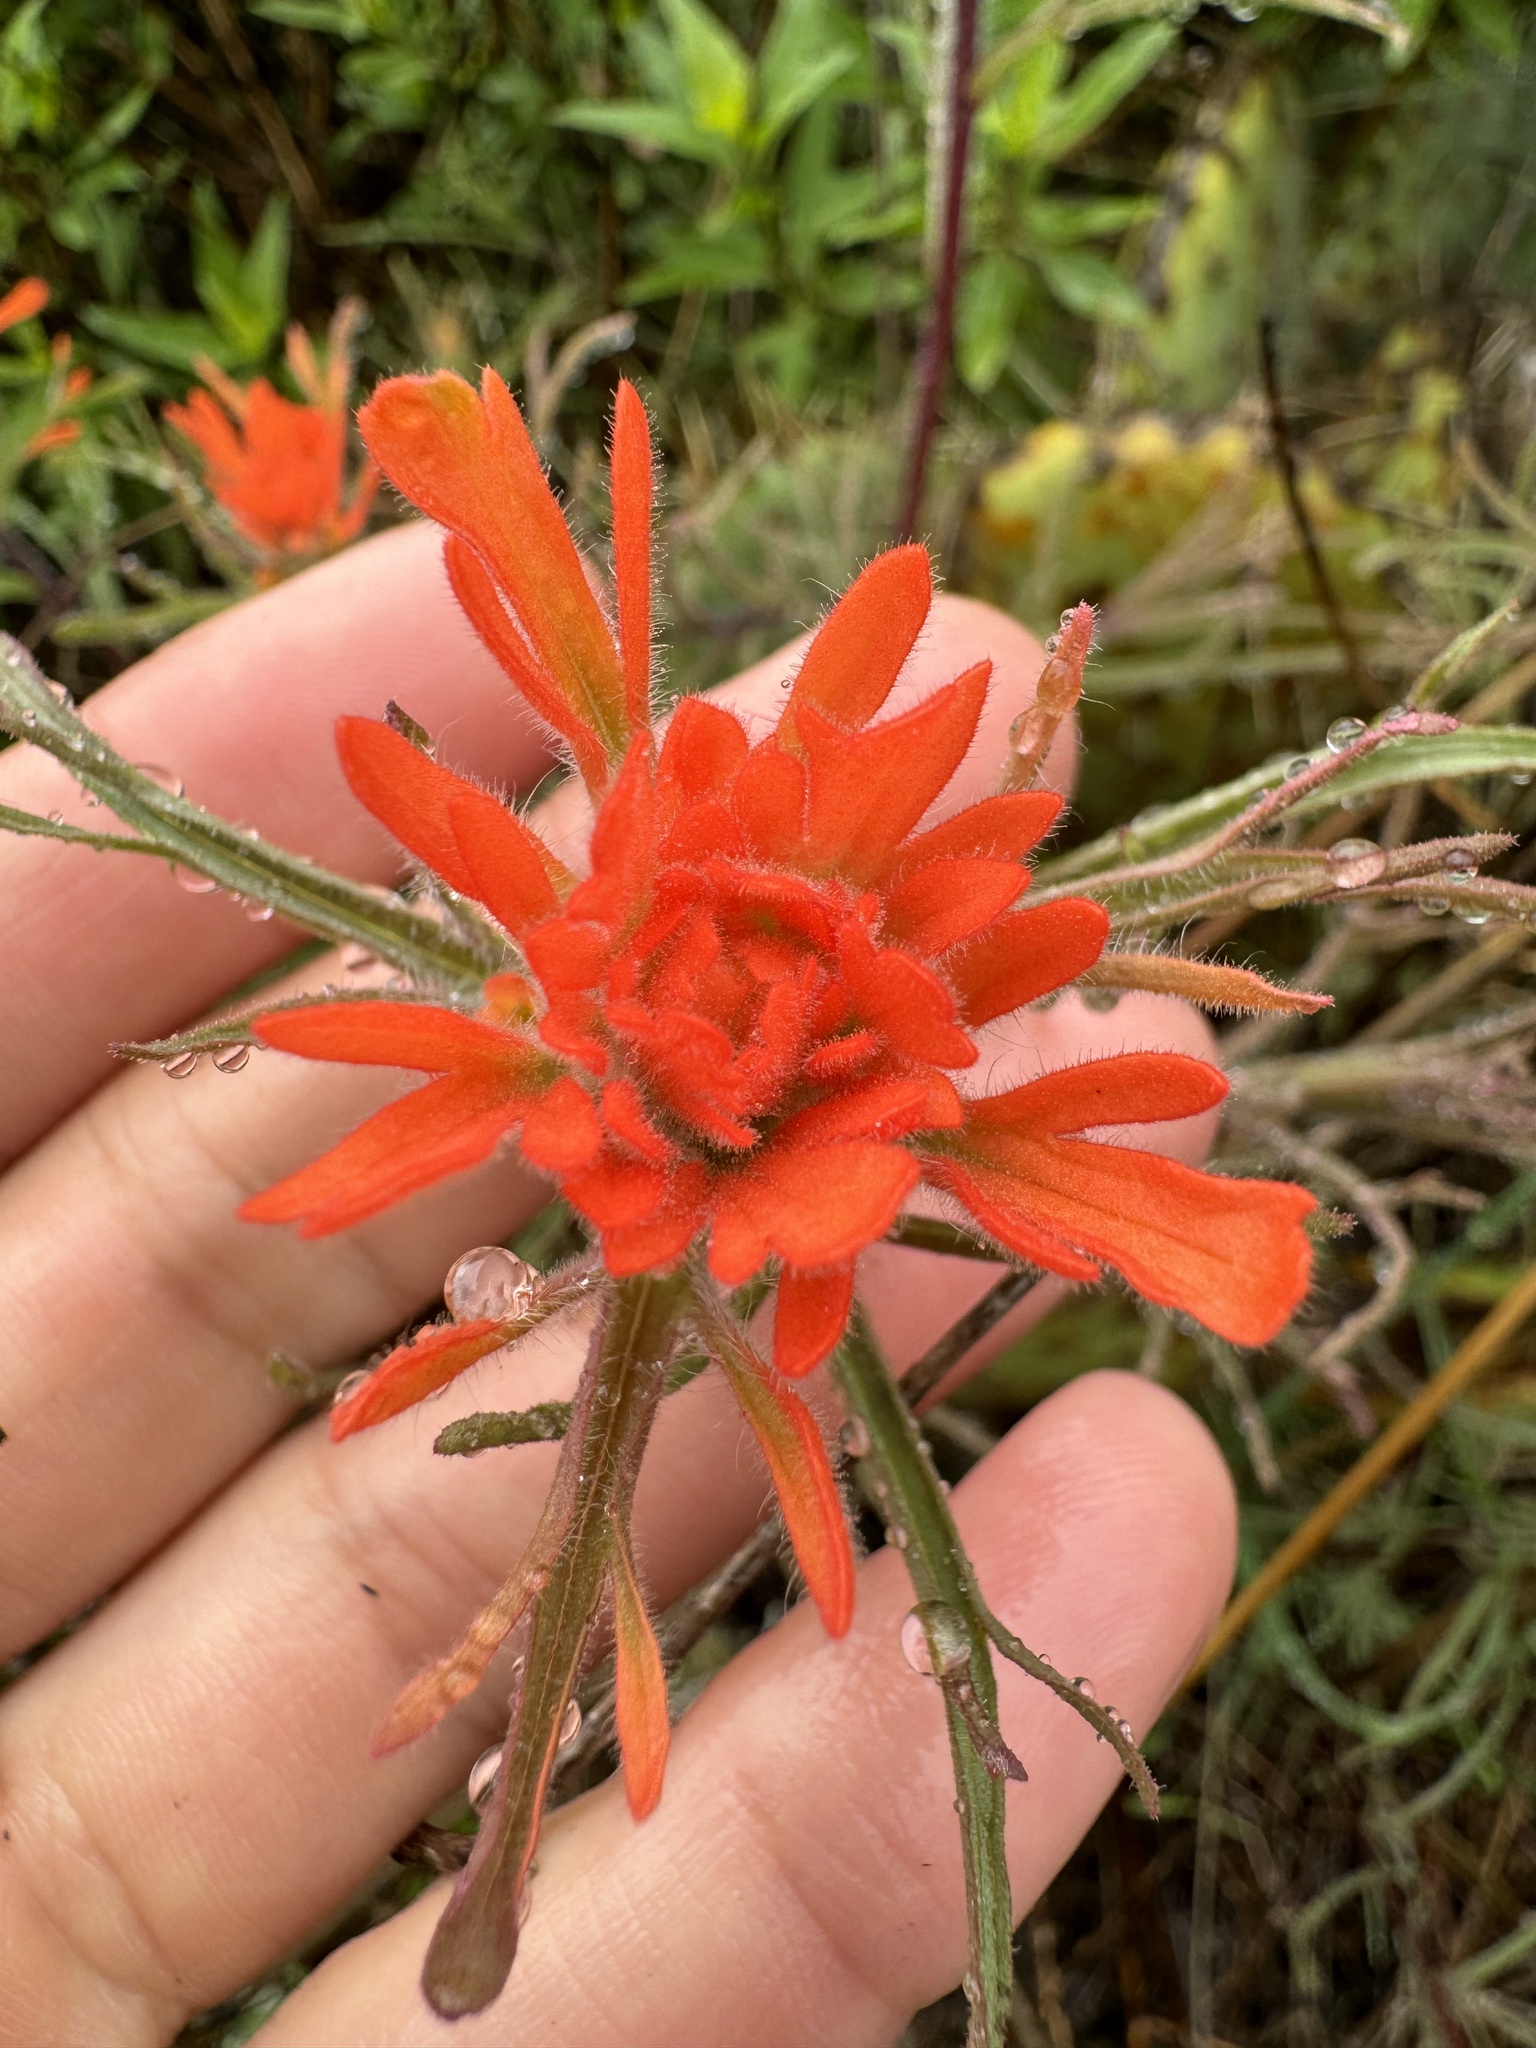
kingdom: Plantae
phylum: Tracheophyta
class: Magnoliopsida
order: Lamiales
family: Orobanchaceae
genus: Castilleja
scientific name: Castilleja affinis
